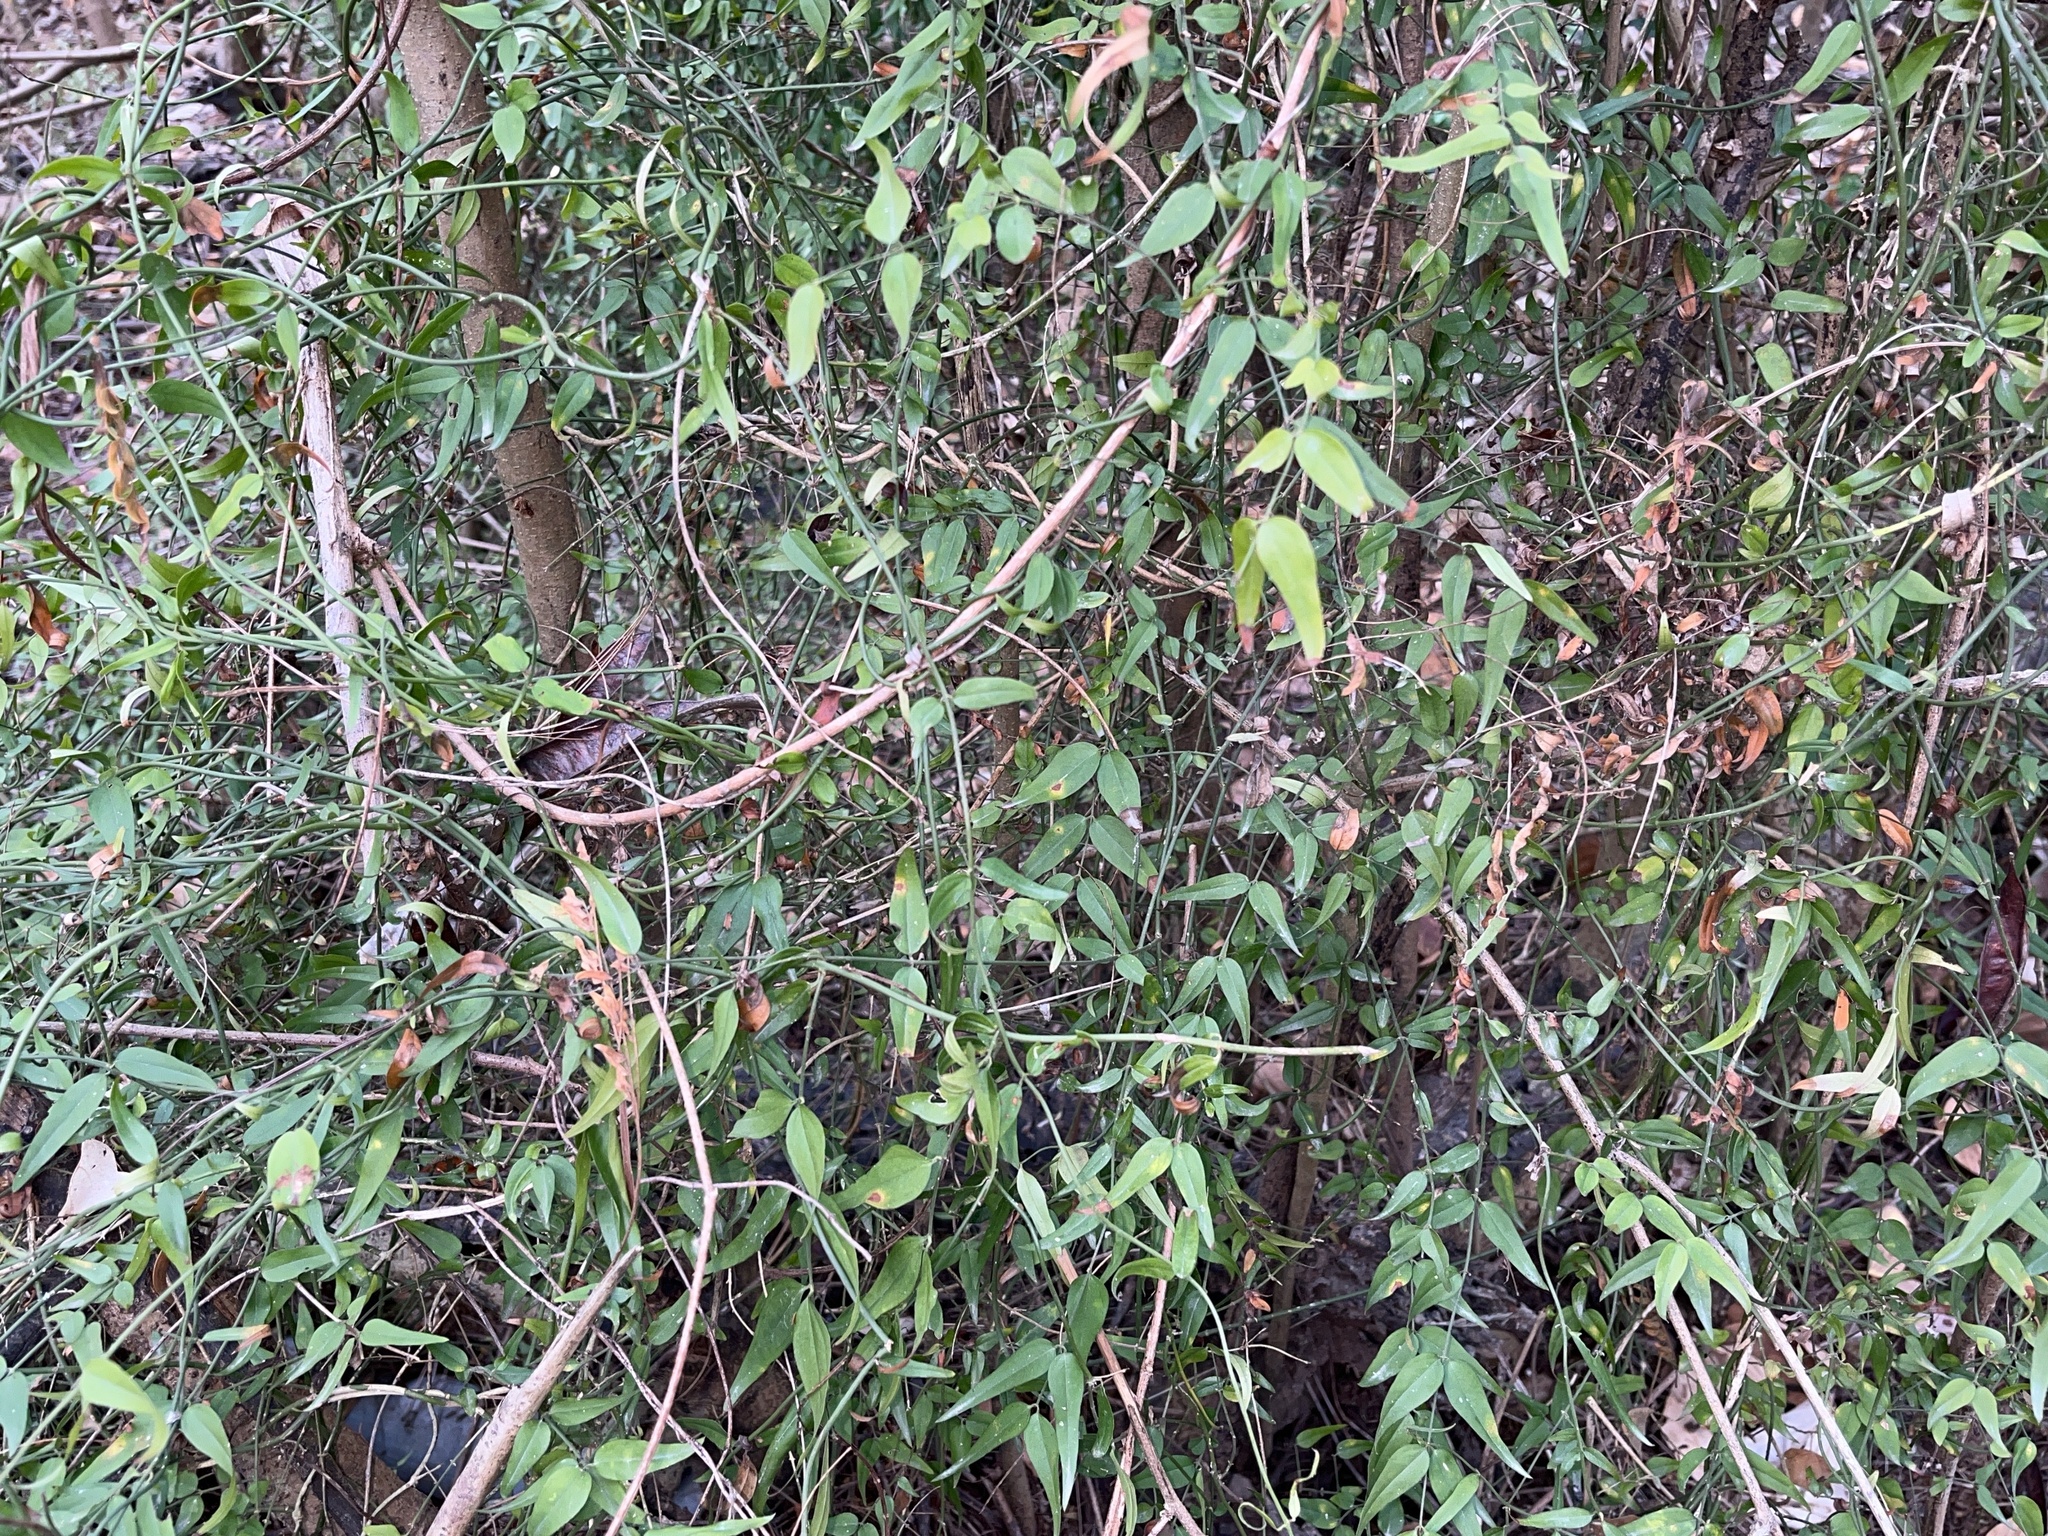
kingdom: Plantae
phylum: Tracheophyta
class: Magnoliopsida
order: Lamiales
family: Oleaceae
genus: Jasminum
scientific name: Jasminum nervosum
